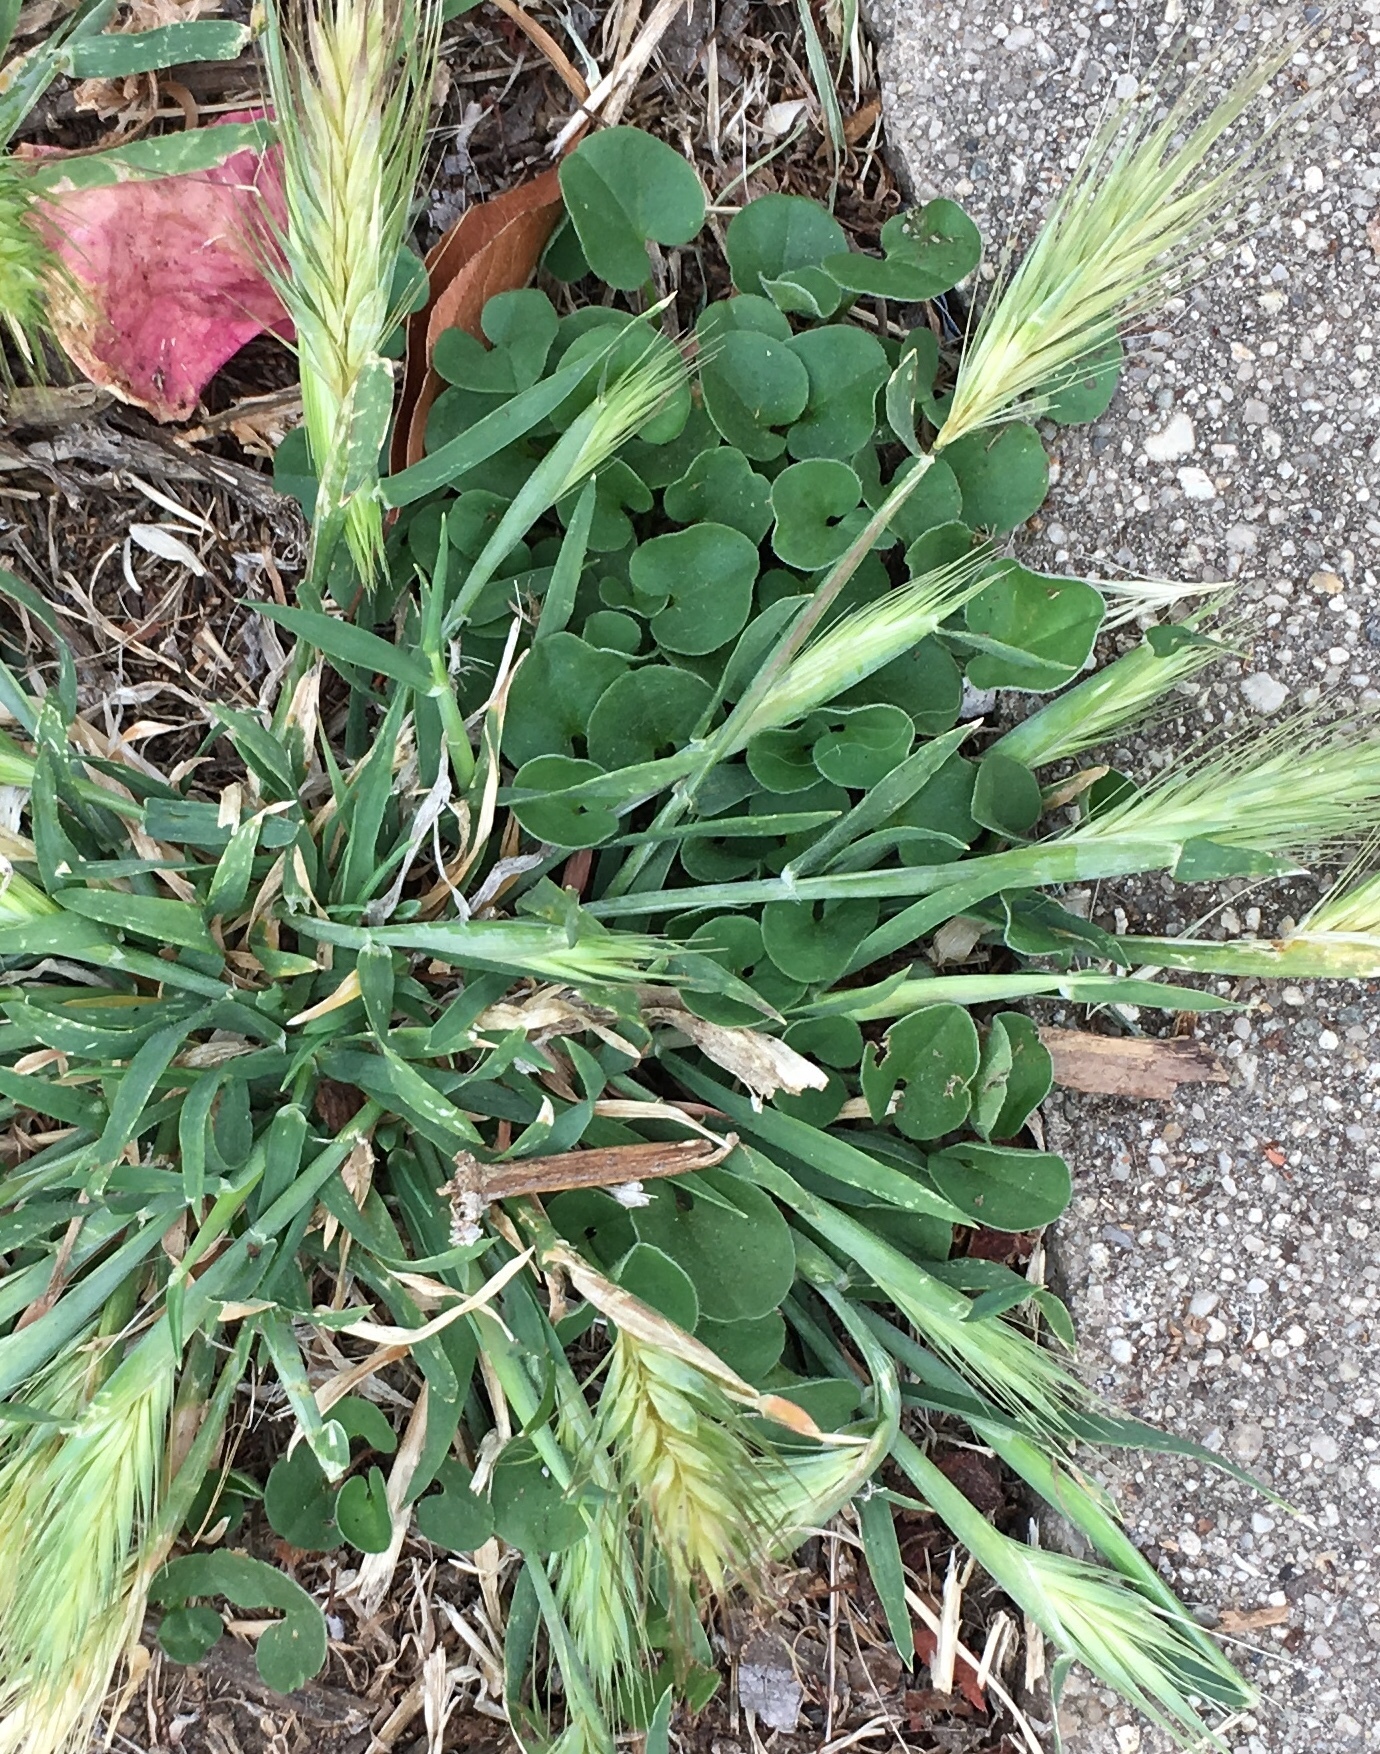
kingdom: Plantae
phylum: Tracheophyta
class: Magnoliopsida
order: Solanales
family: Convolvulaceae
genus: Dichondra
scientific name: Dichondra micrantha
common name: Kidneyweed
